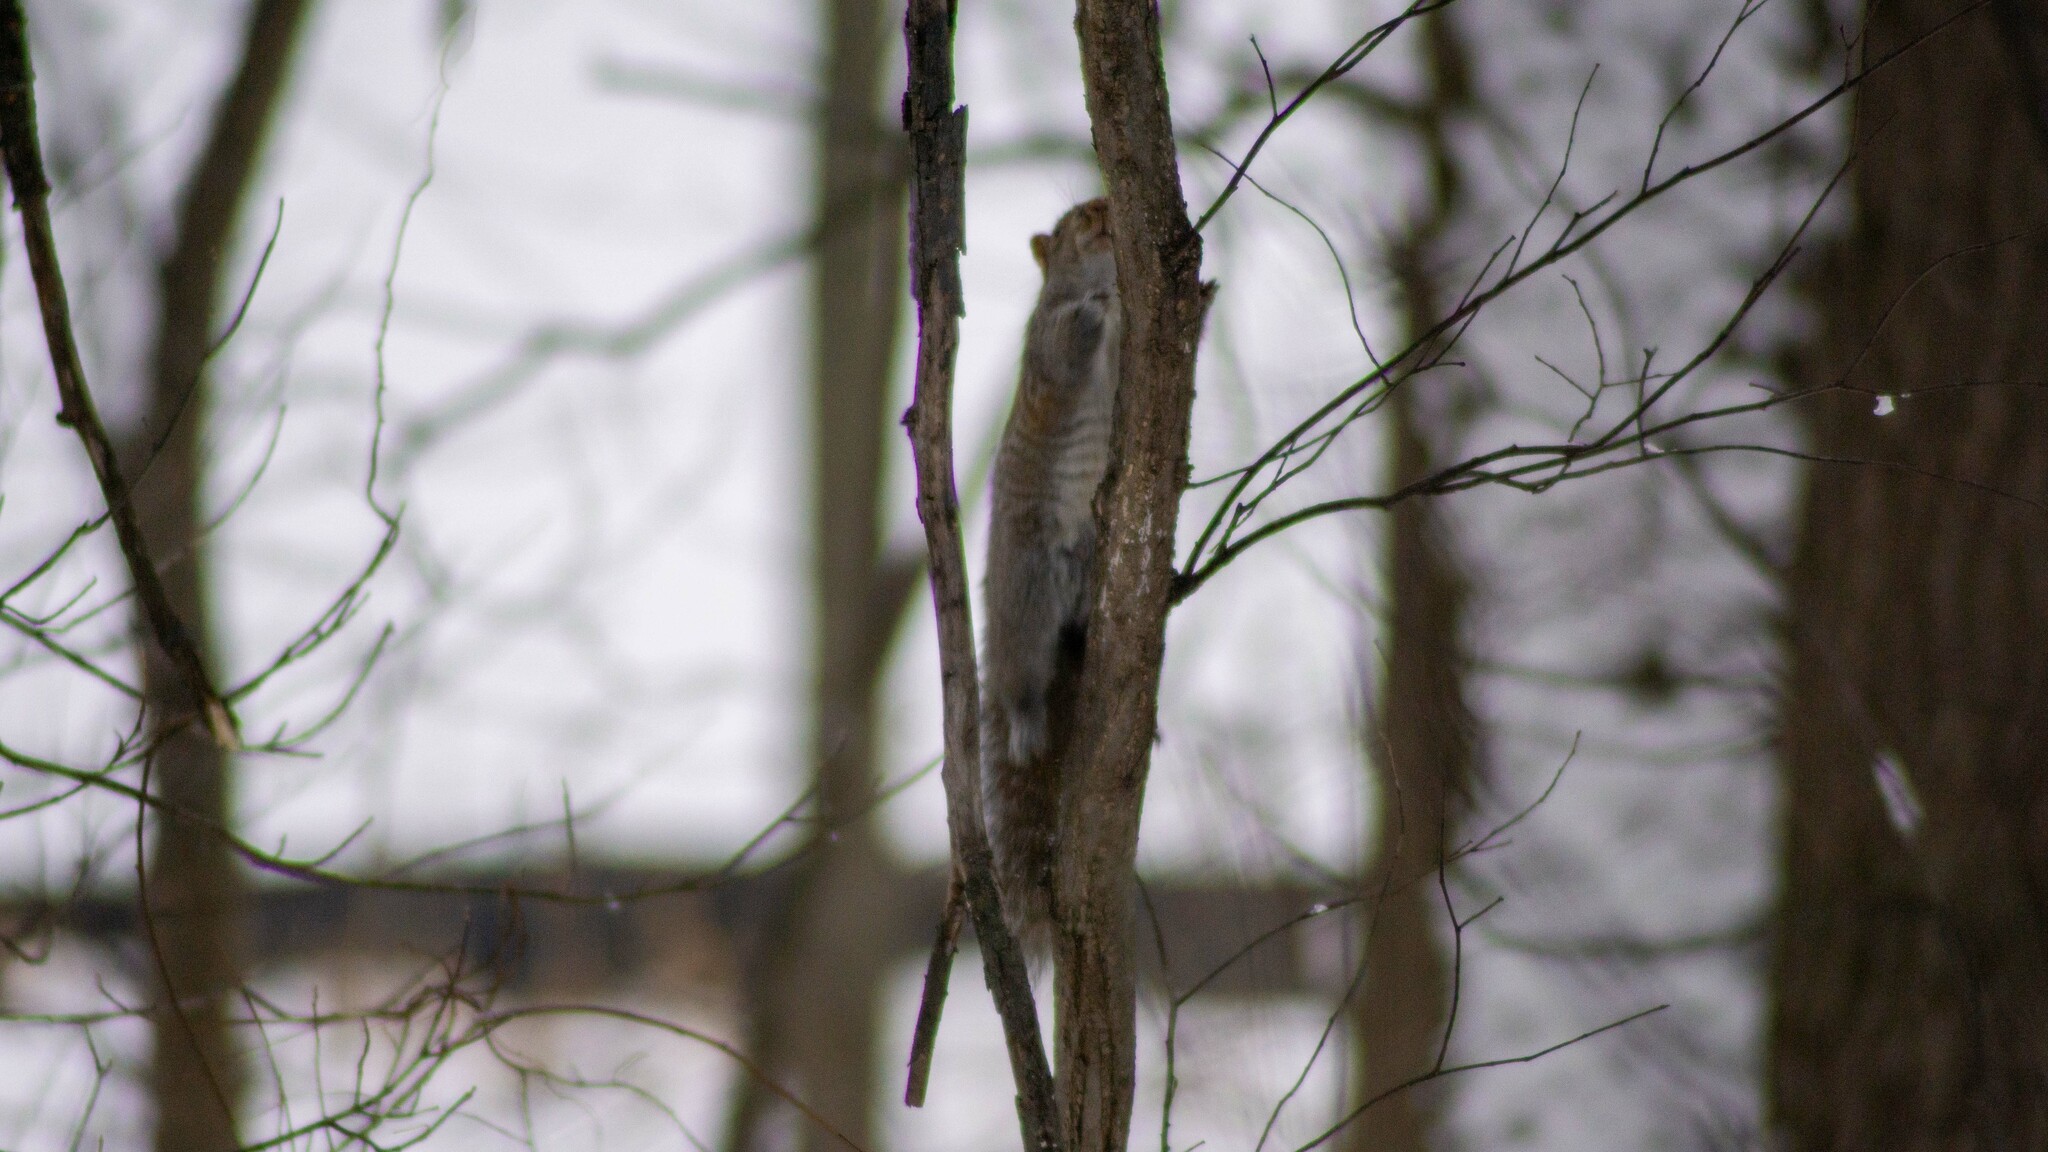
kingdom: Animalia
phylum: Chordata
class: Mammalia
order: Rodentia
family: Sciuridae
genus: Sciurus
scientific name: Sciurus carolinensis
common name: Eastern gray squirrel
